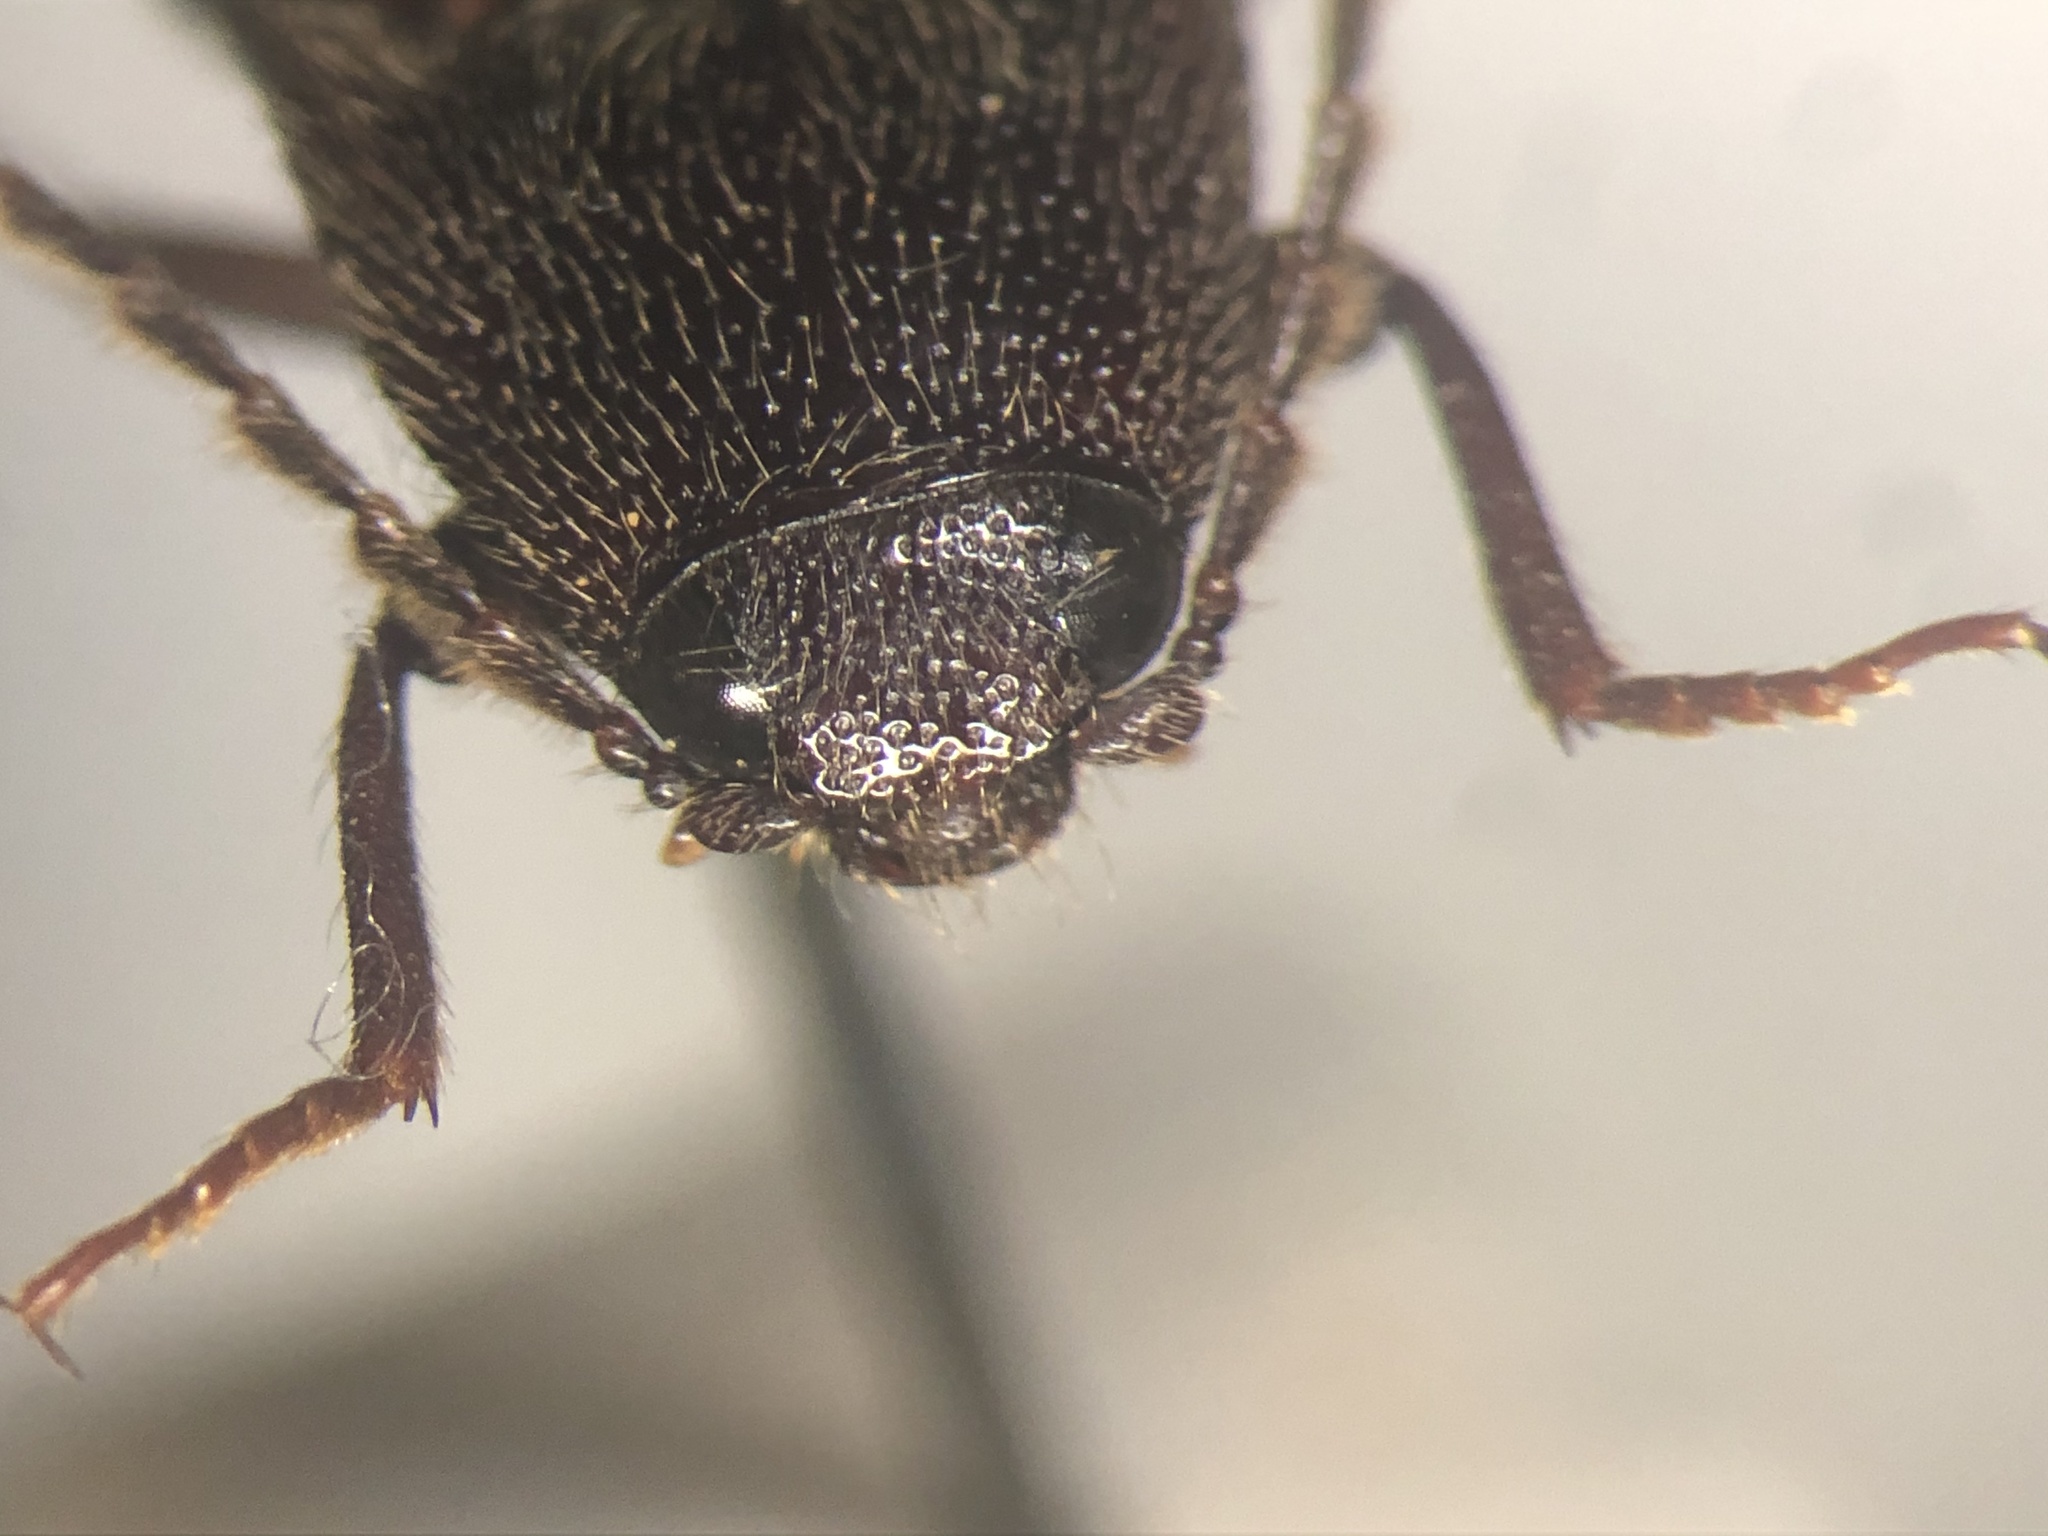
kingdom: Animalia
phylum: Arthropoda
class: Insecta
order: Coleoptera
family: Elateridae
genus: Melanotus
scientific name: Melanotus castanipes
